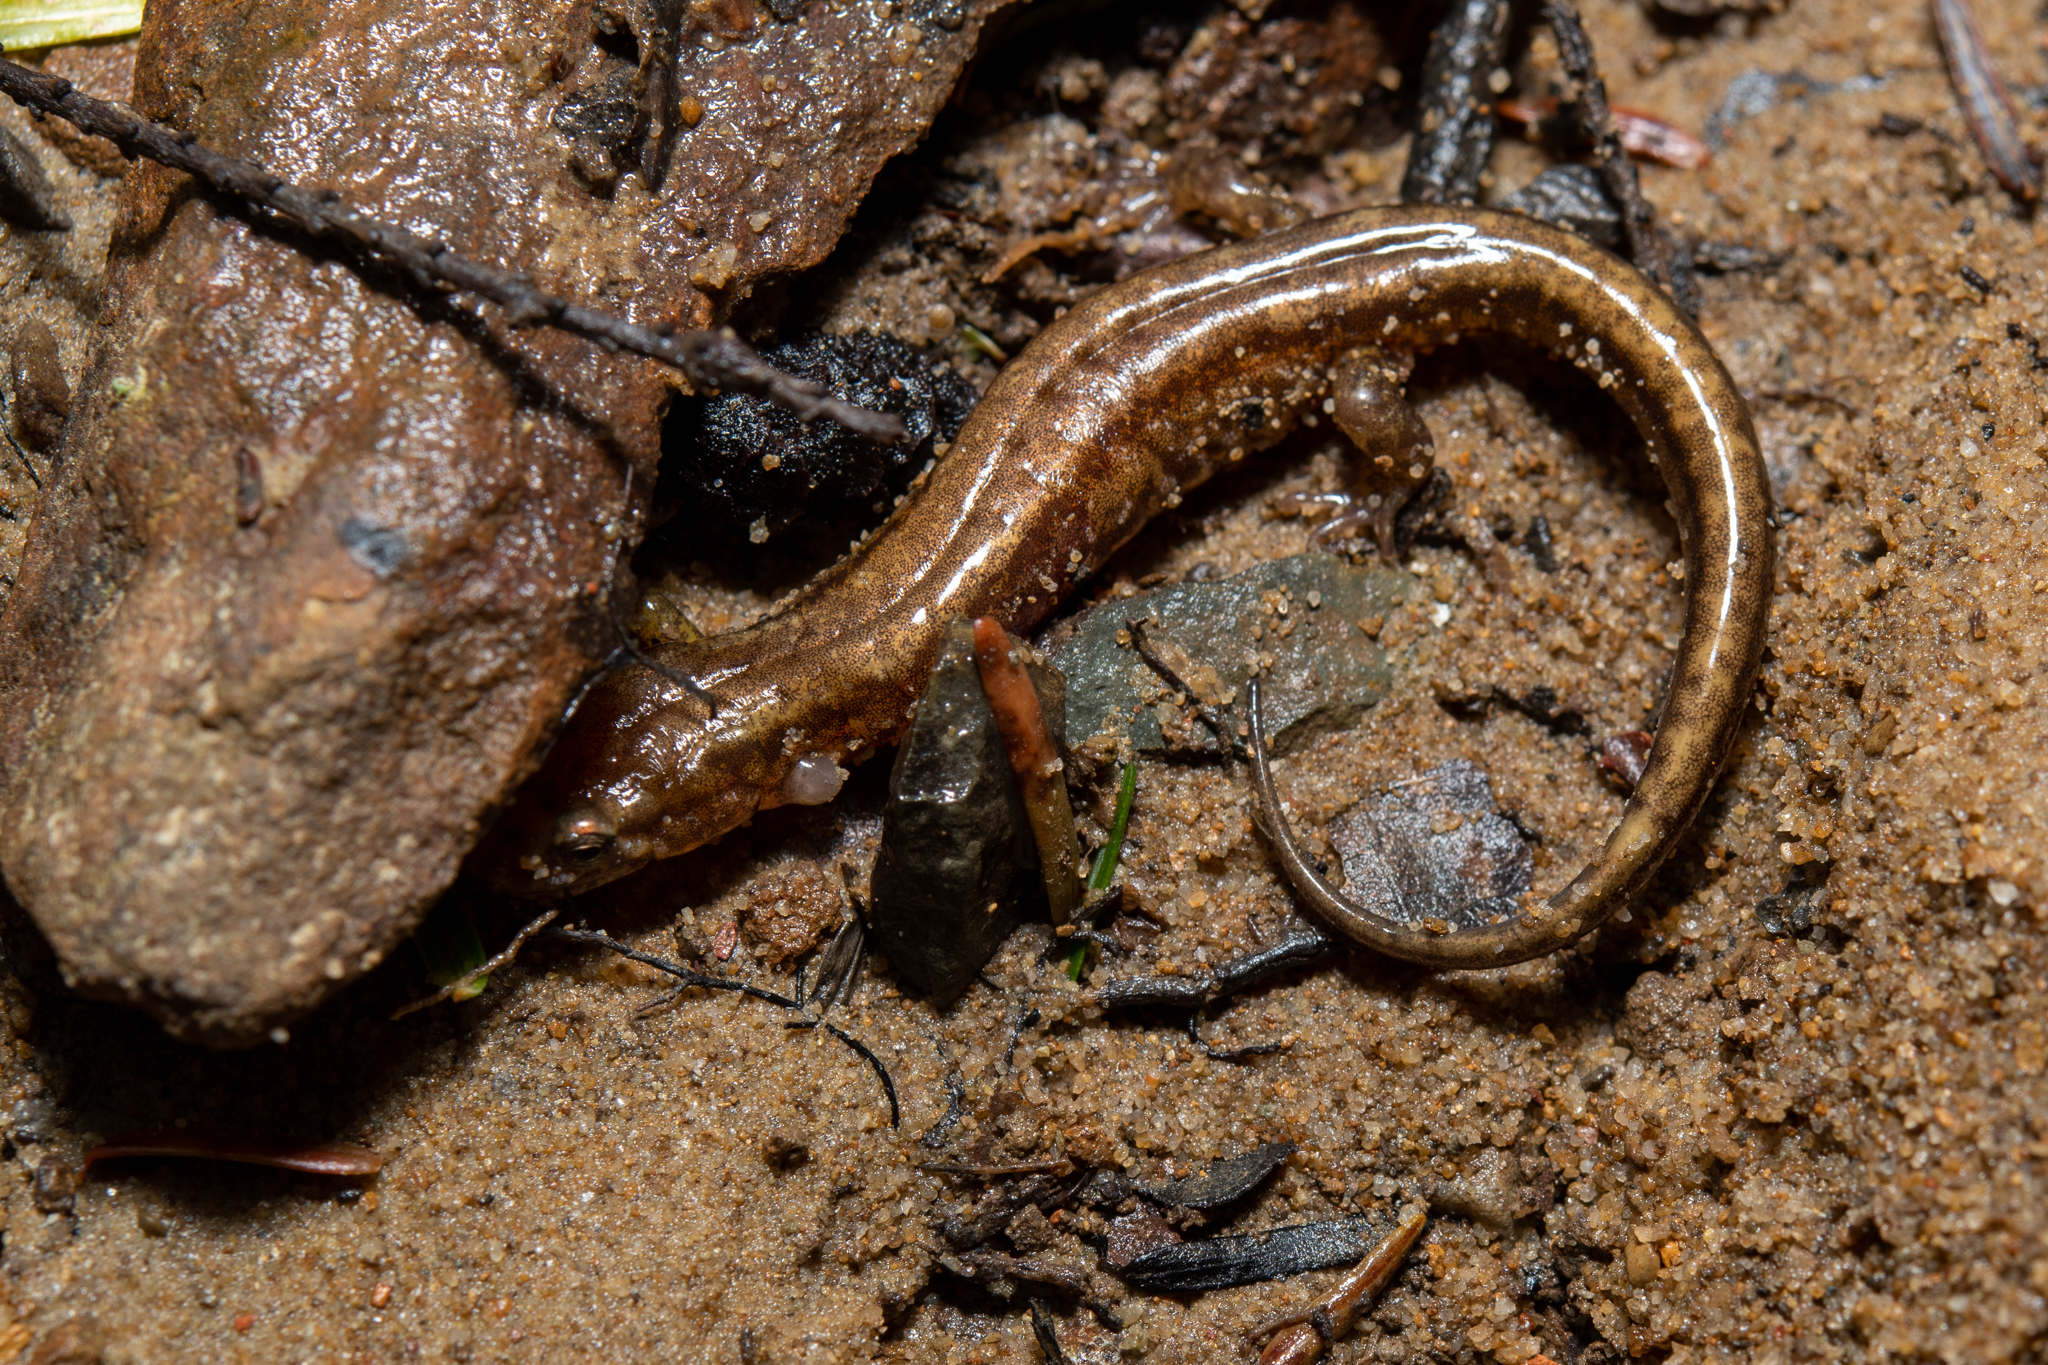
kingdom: Animalia
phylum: Chordata
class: Amphibia
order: Caudata
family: Plethodontidae
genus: Desmognathus
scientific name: Desmognathus ochrophaeus
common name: Allegheny mountain dusky salamander
